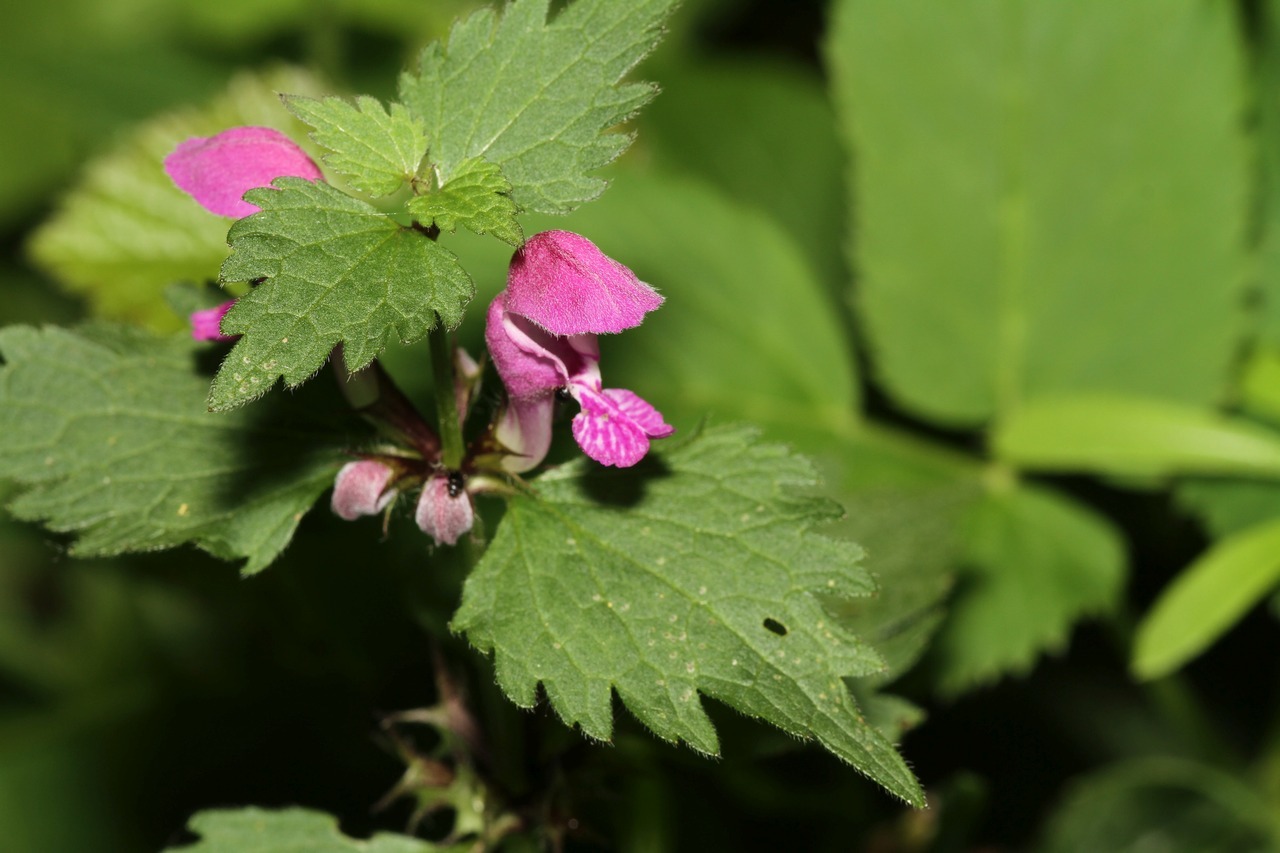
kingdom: Plantae
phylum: Tracheophyta
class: Magnoliopsida
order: Lamiales
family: Lamiaceae
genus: Lamium
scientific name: Lamium maculatum
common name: Spotted dead-nettle
